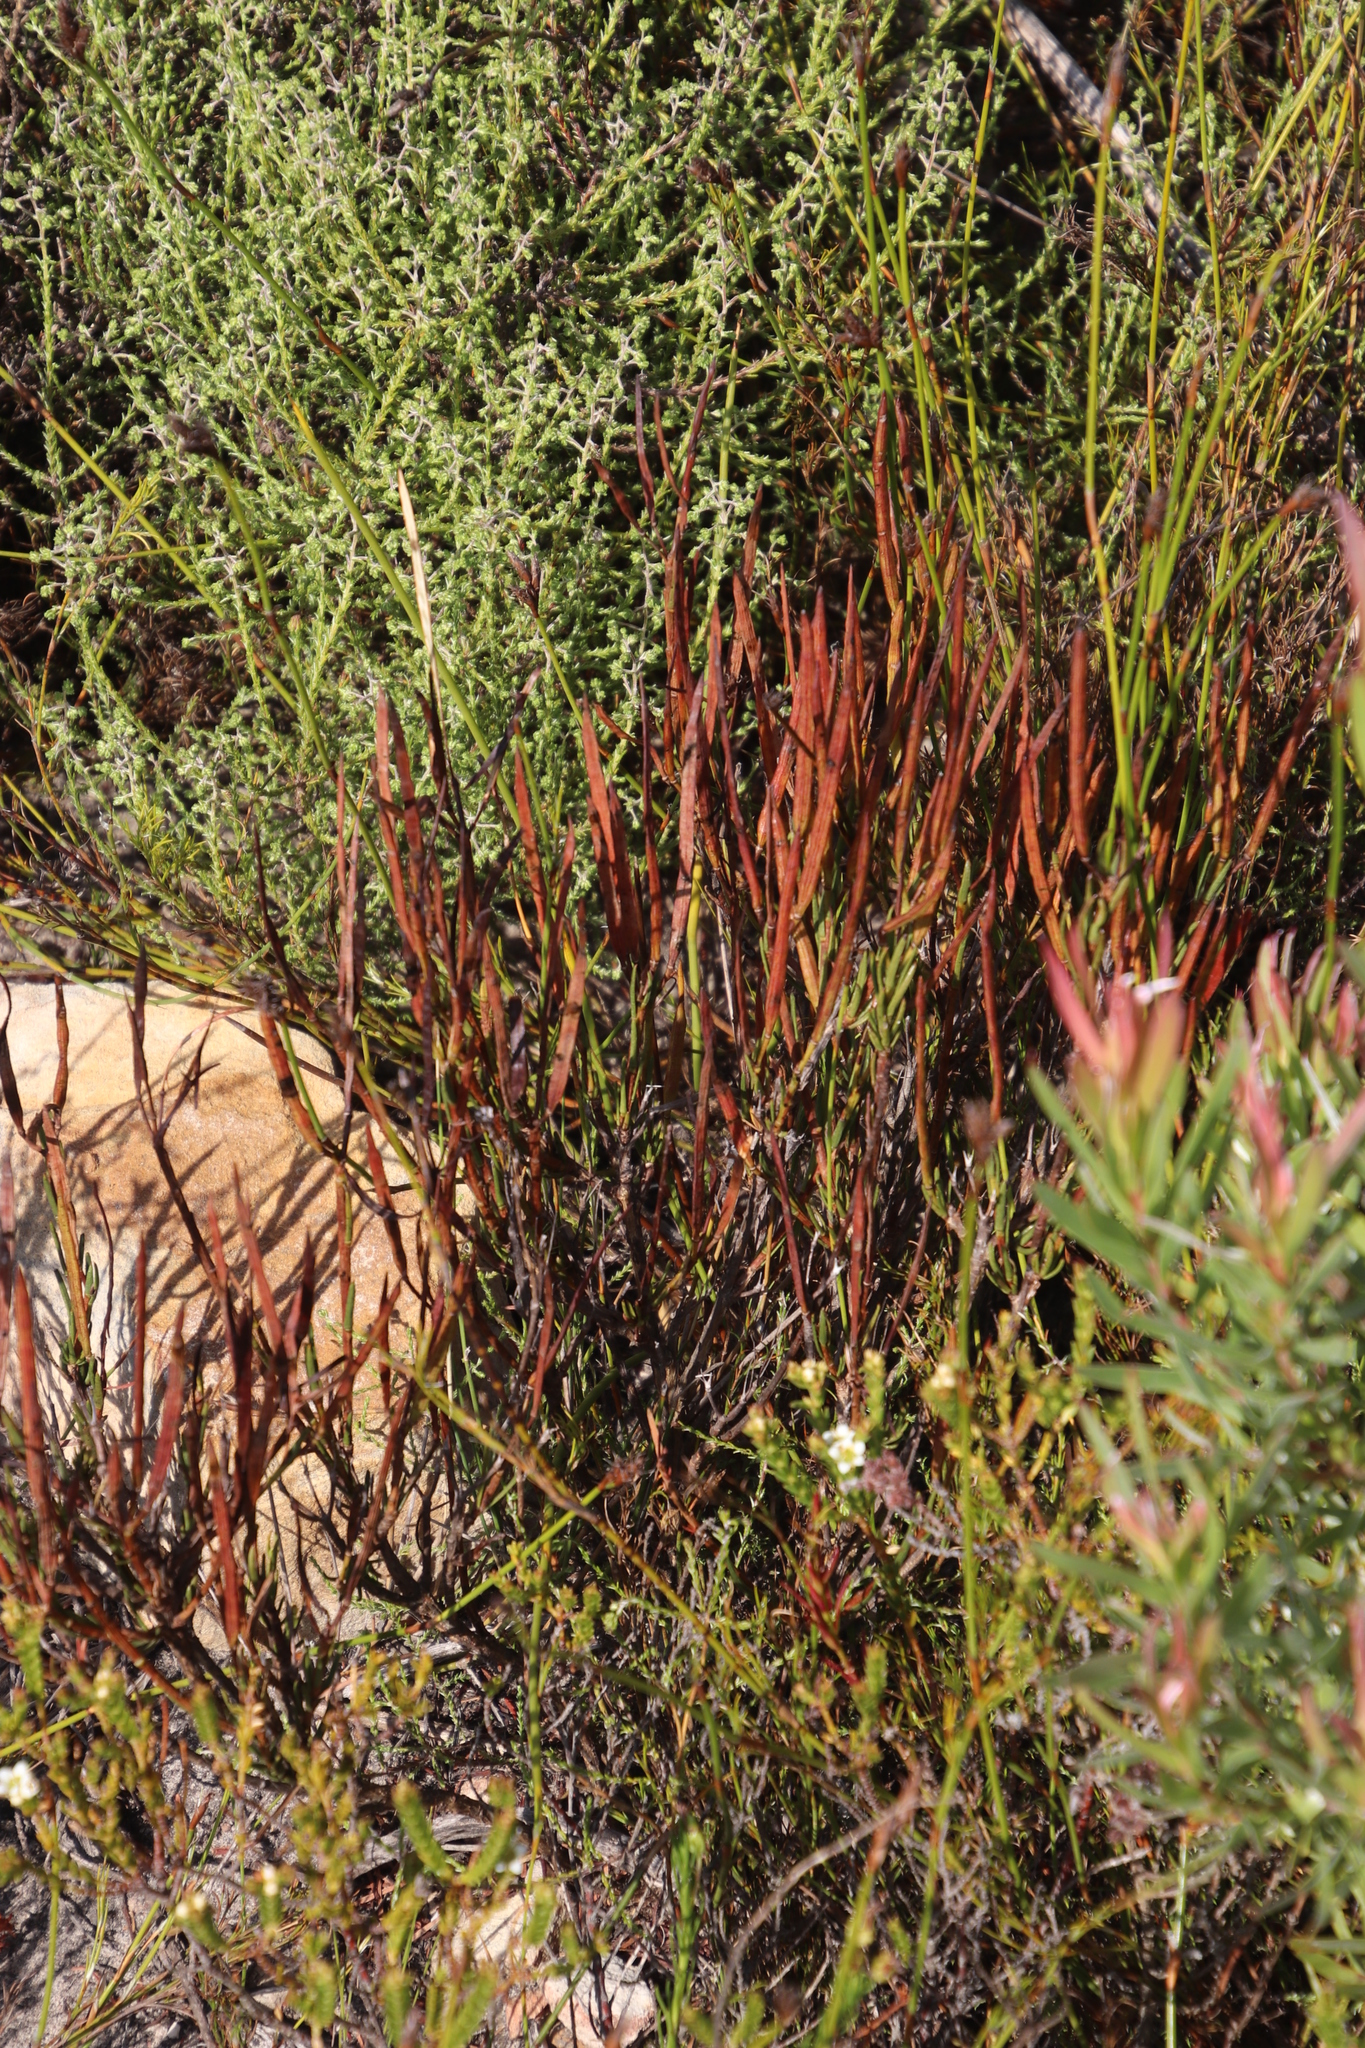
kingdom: Plantae
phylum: Tracheophyta
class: Magnoliopsida
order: Brassicales
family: Brassicaceae
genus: Heliophila
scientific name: Heliophila scoparia
